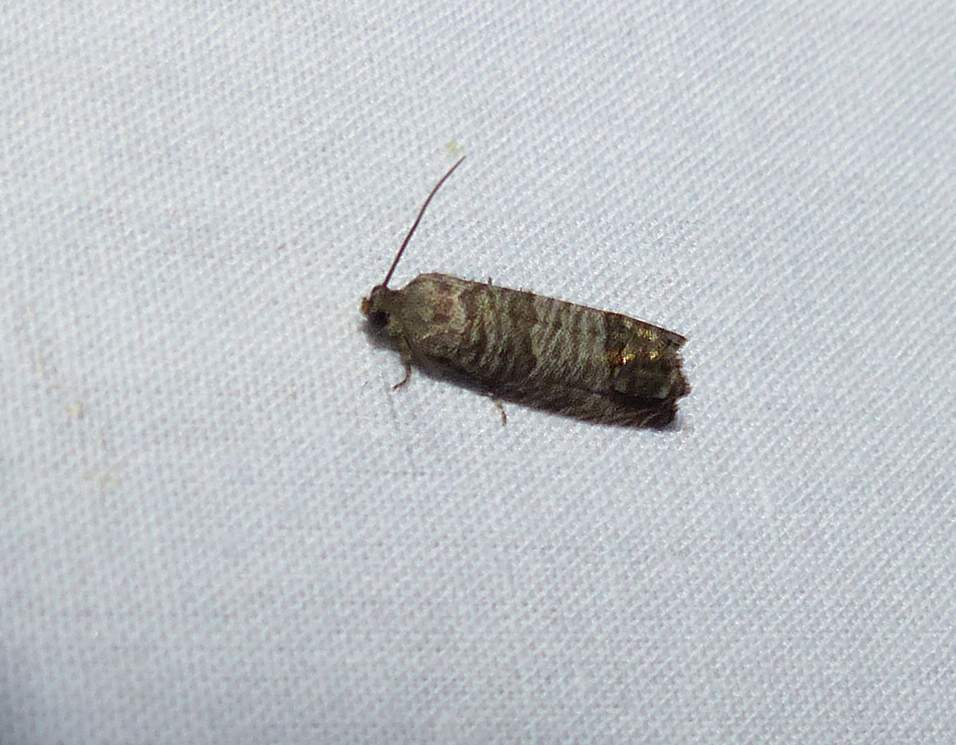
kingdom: Animalia
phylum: Arthropoda
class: Insecta
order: Lepidoptera
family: Tortricidae
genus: Cydia
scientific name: Cydia pomonella
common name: Codling moth
